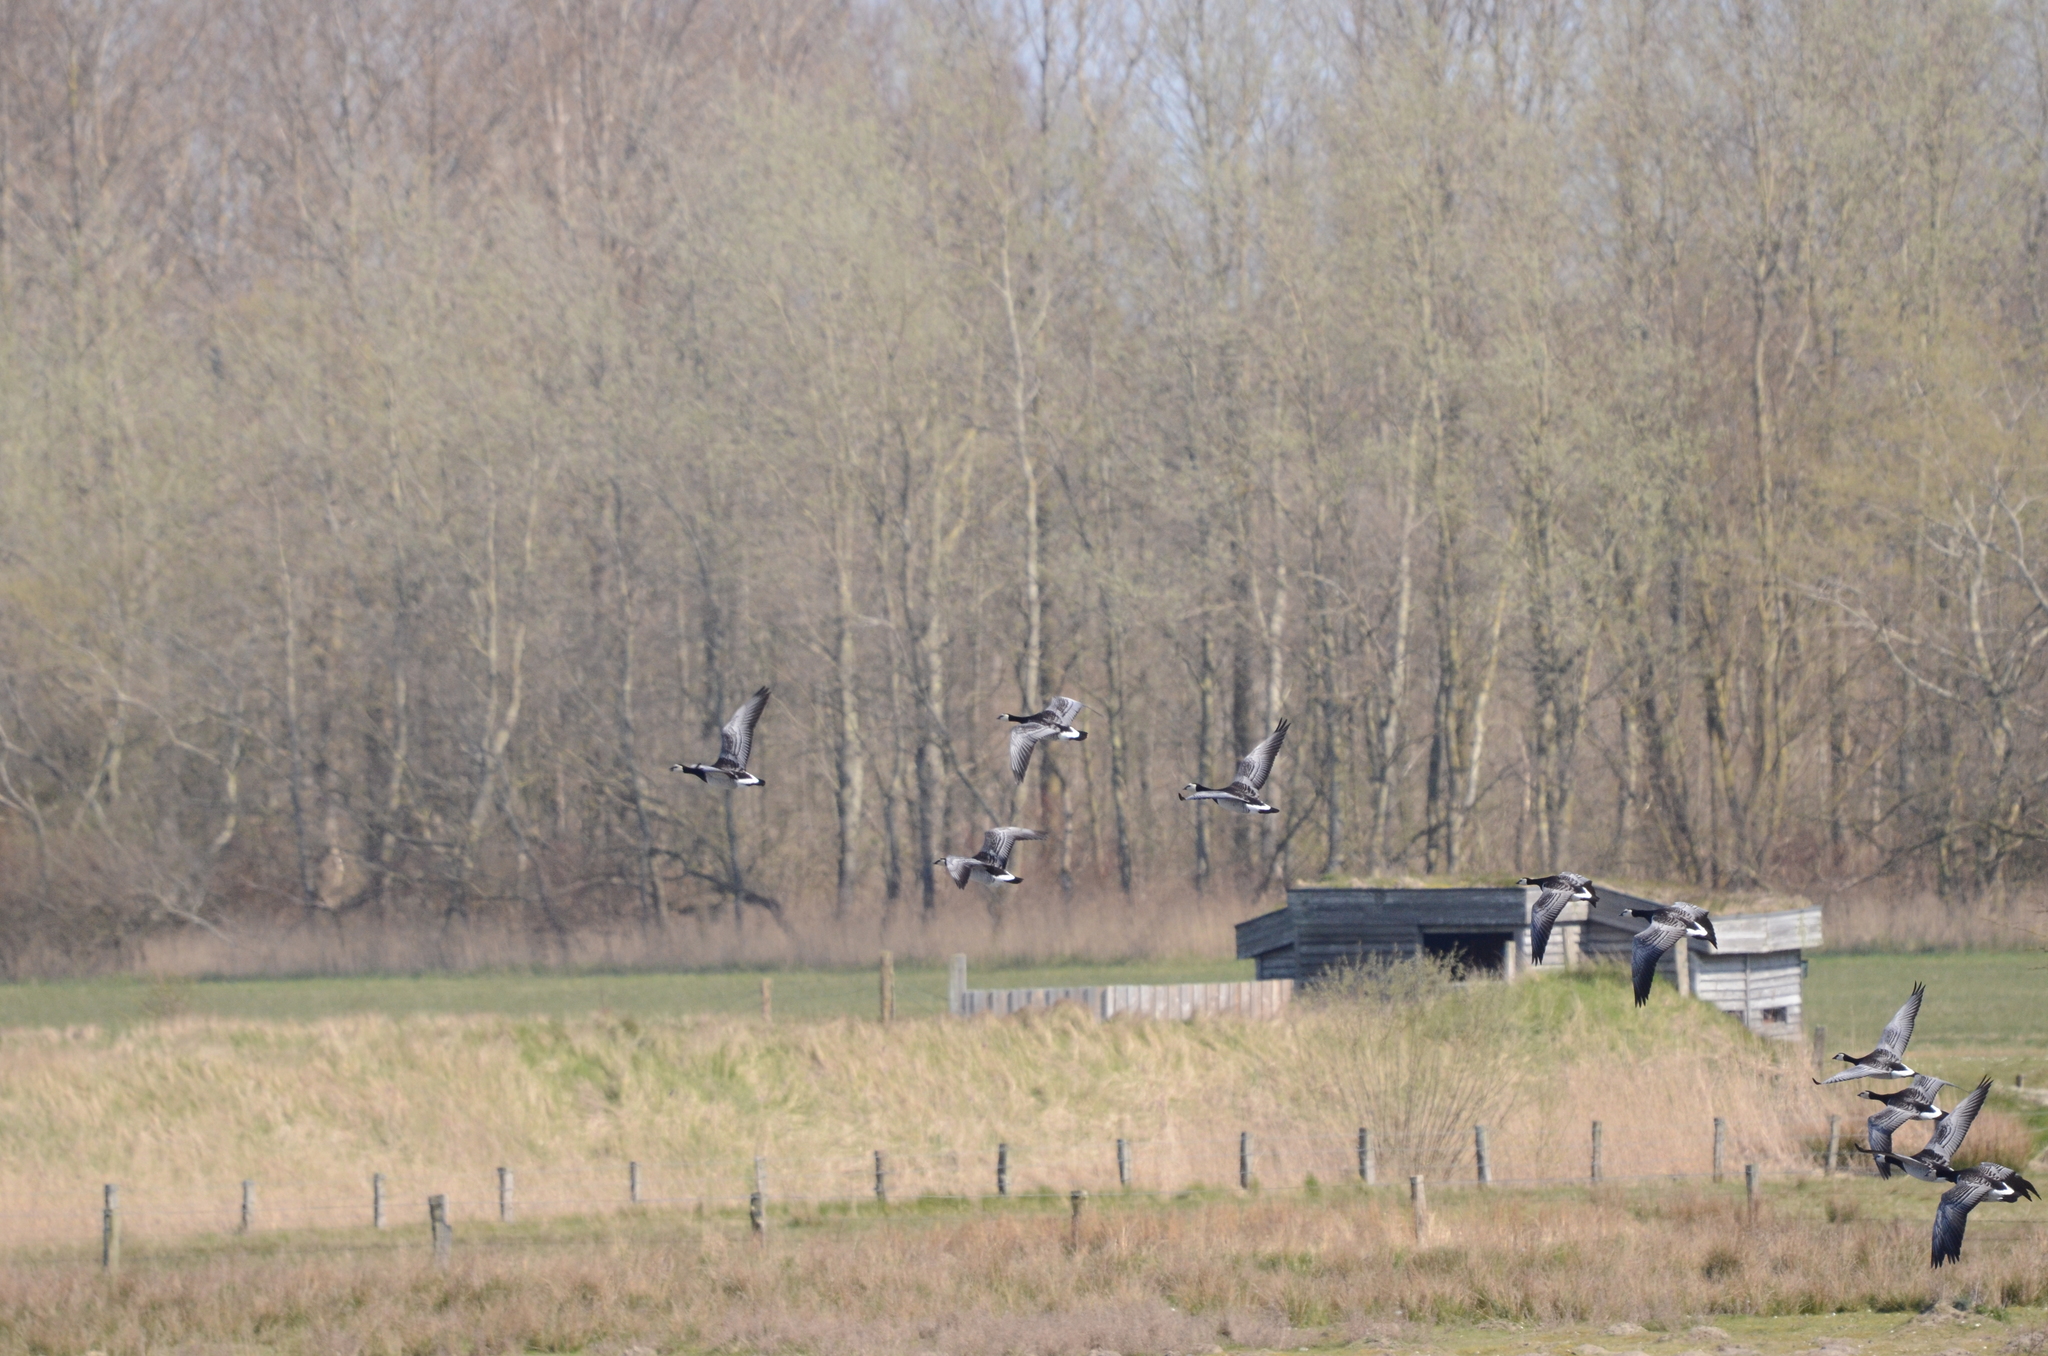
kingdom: Animalia
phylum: Chordata
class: Aves
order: Anseriformes
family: Anatidae
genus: Branta
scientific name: Branta leucopsis
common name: Barnacle goose
